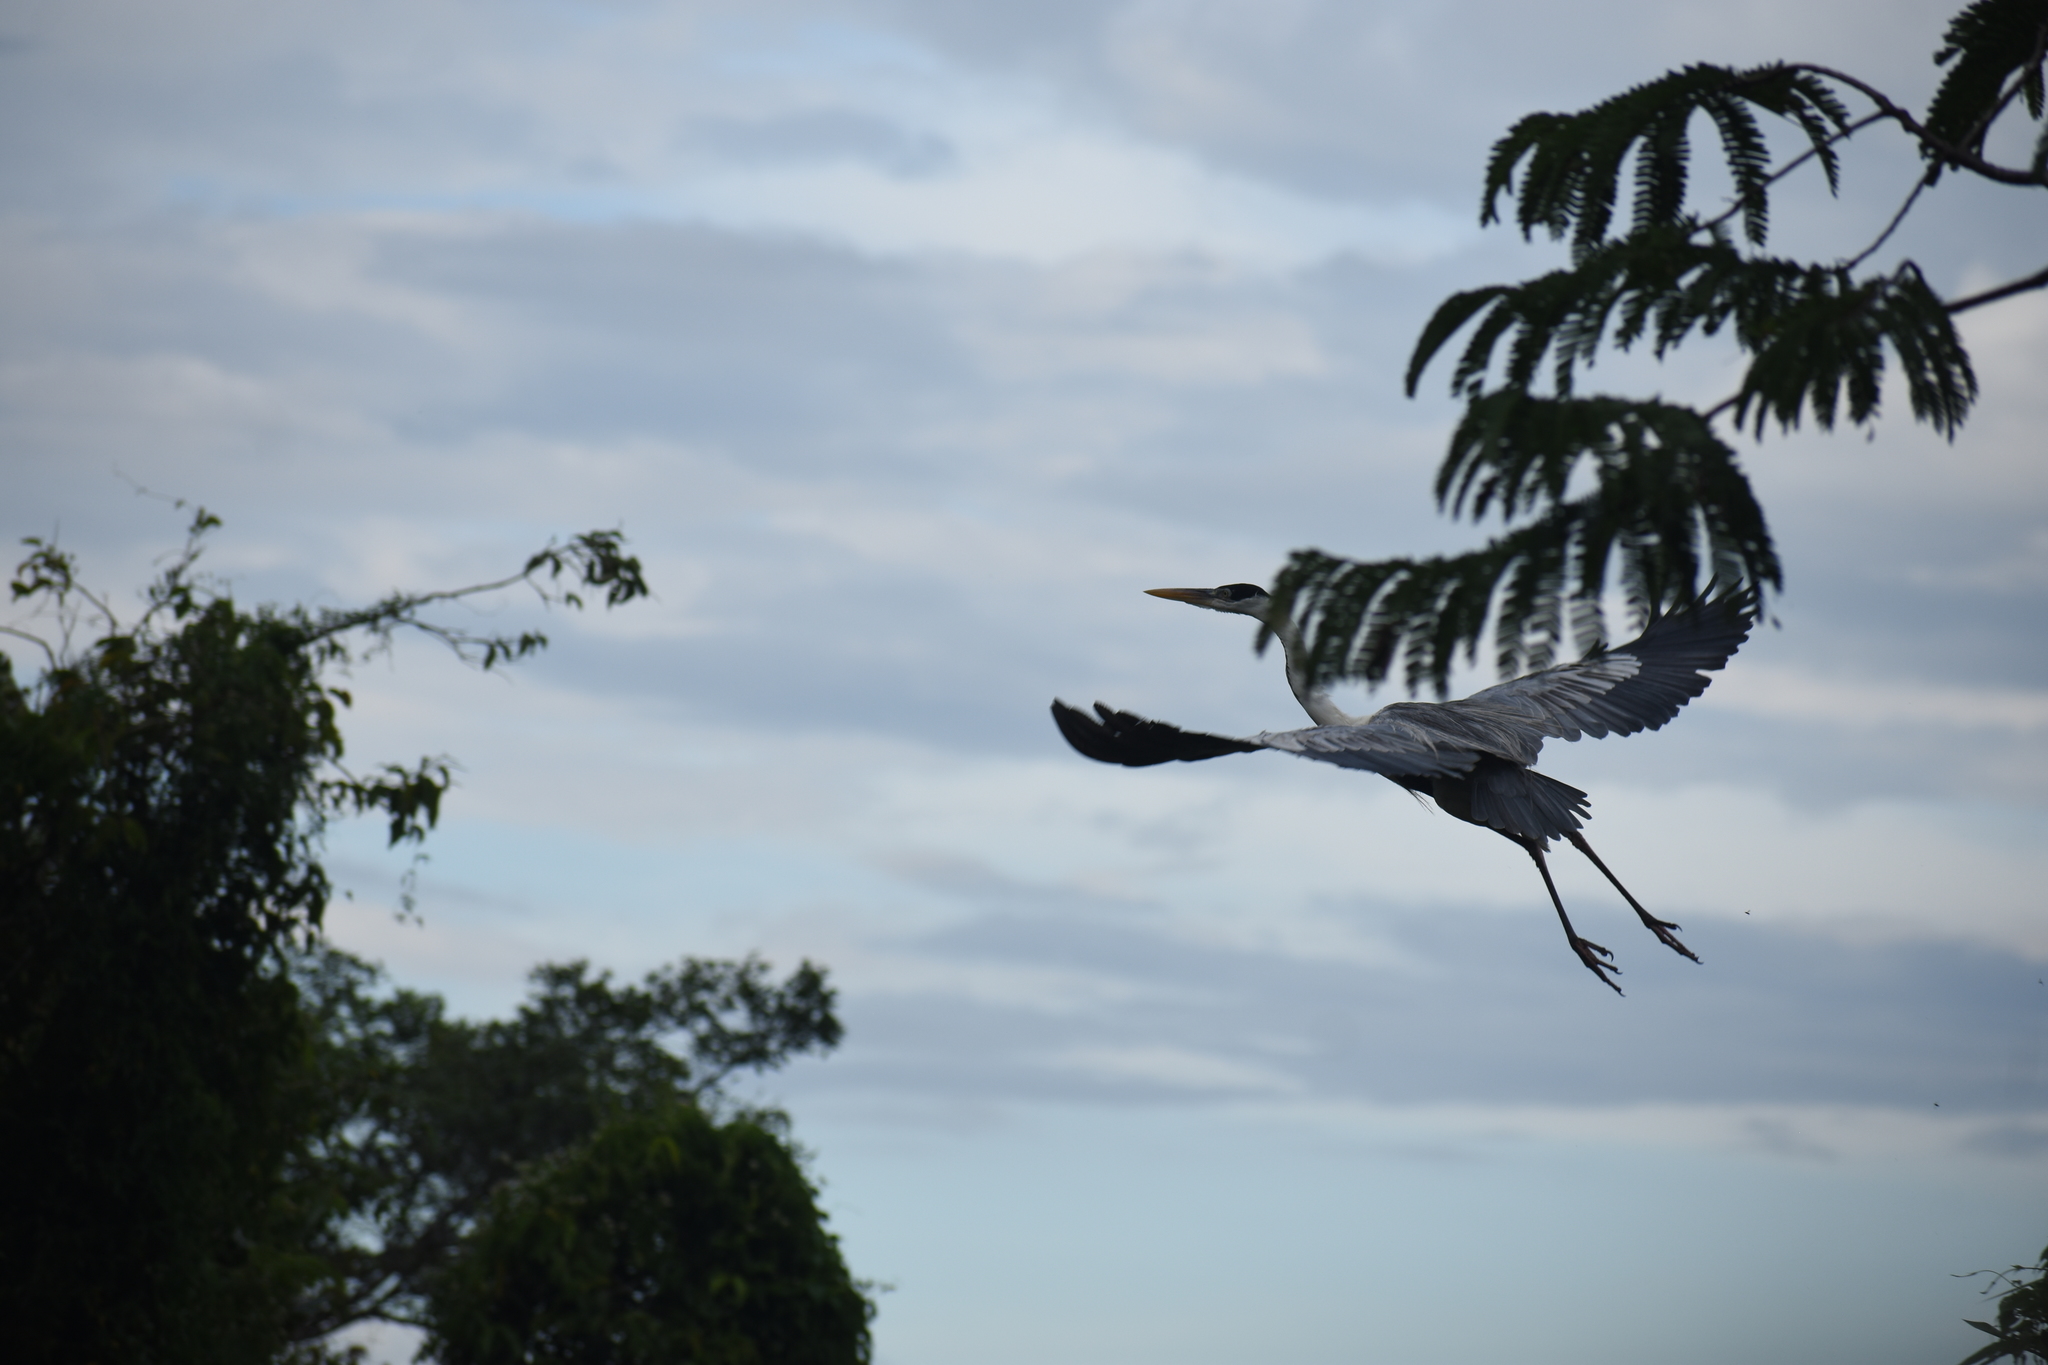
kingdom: Animalia
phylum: Chordata
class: Aves
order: Pelecaniformes
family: Ardeidae
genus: Ardea
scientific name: Ardea cocoi
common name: Cocoi heron
